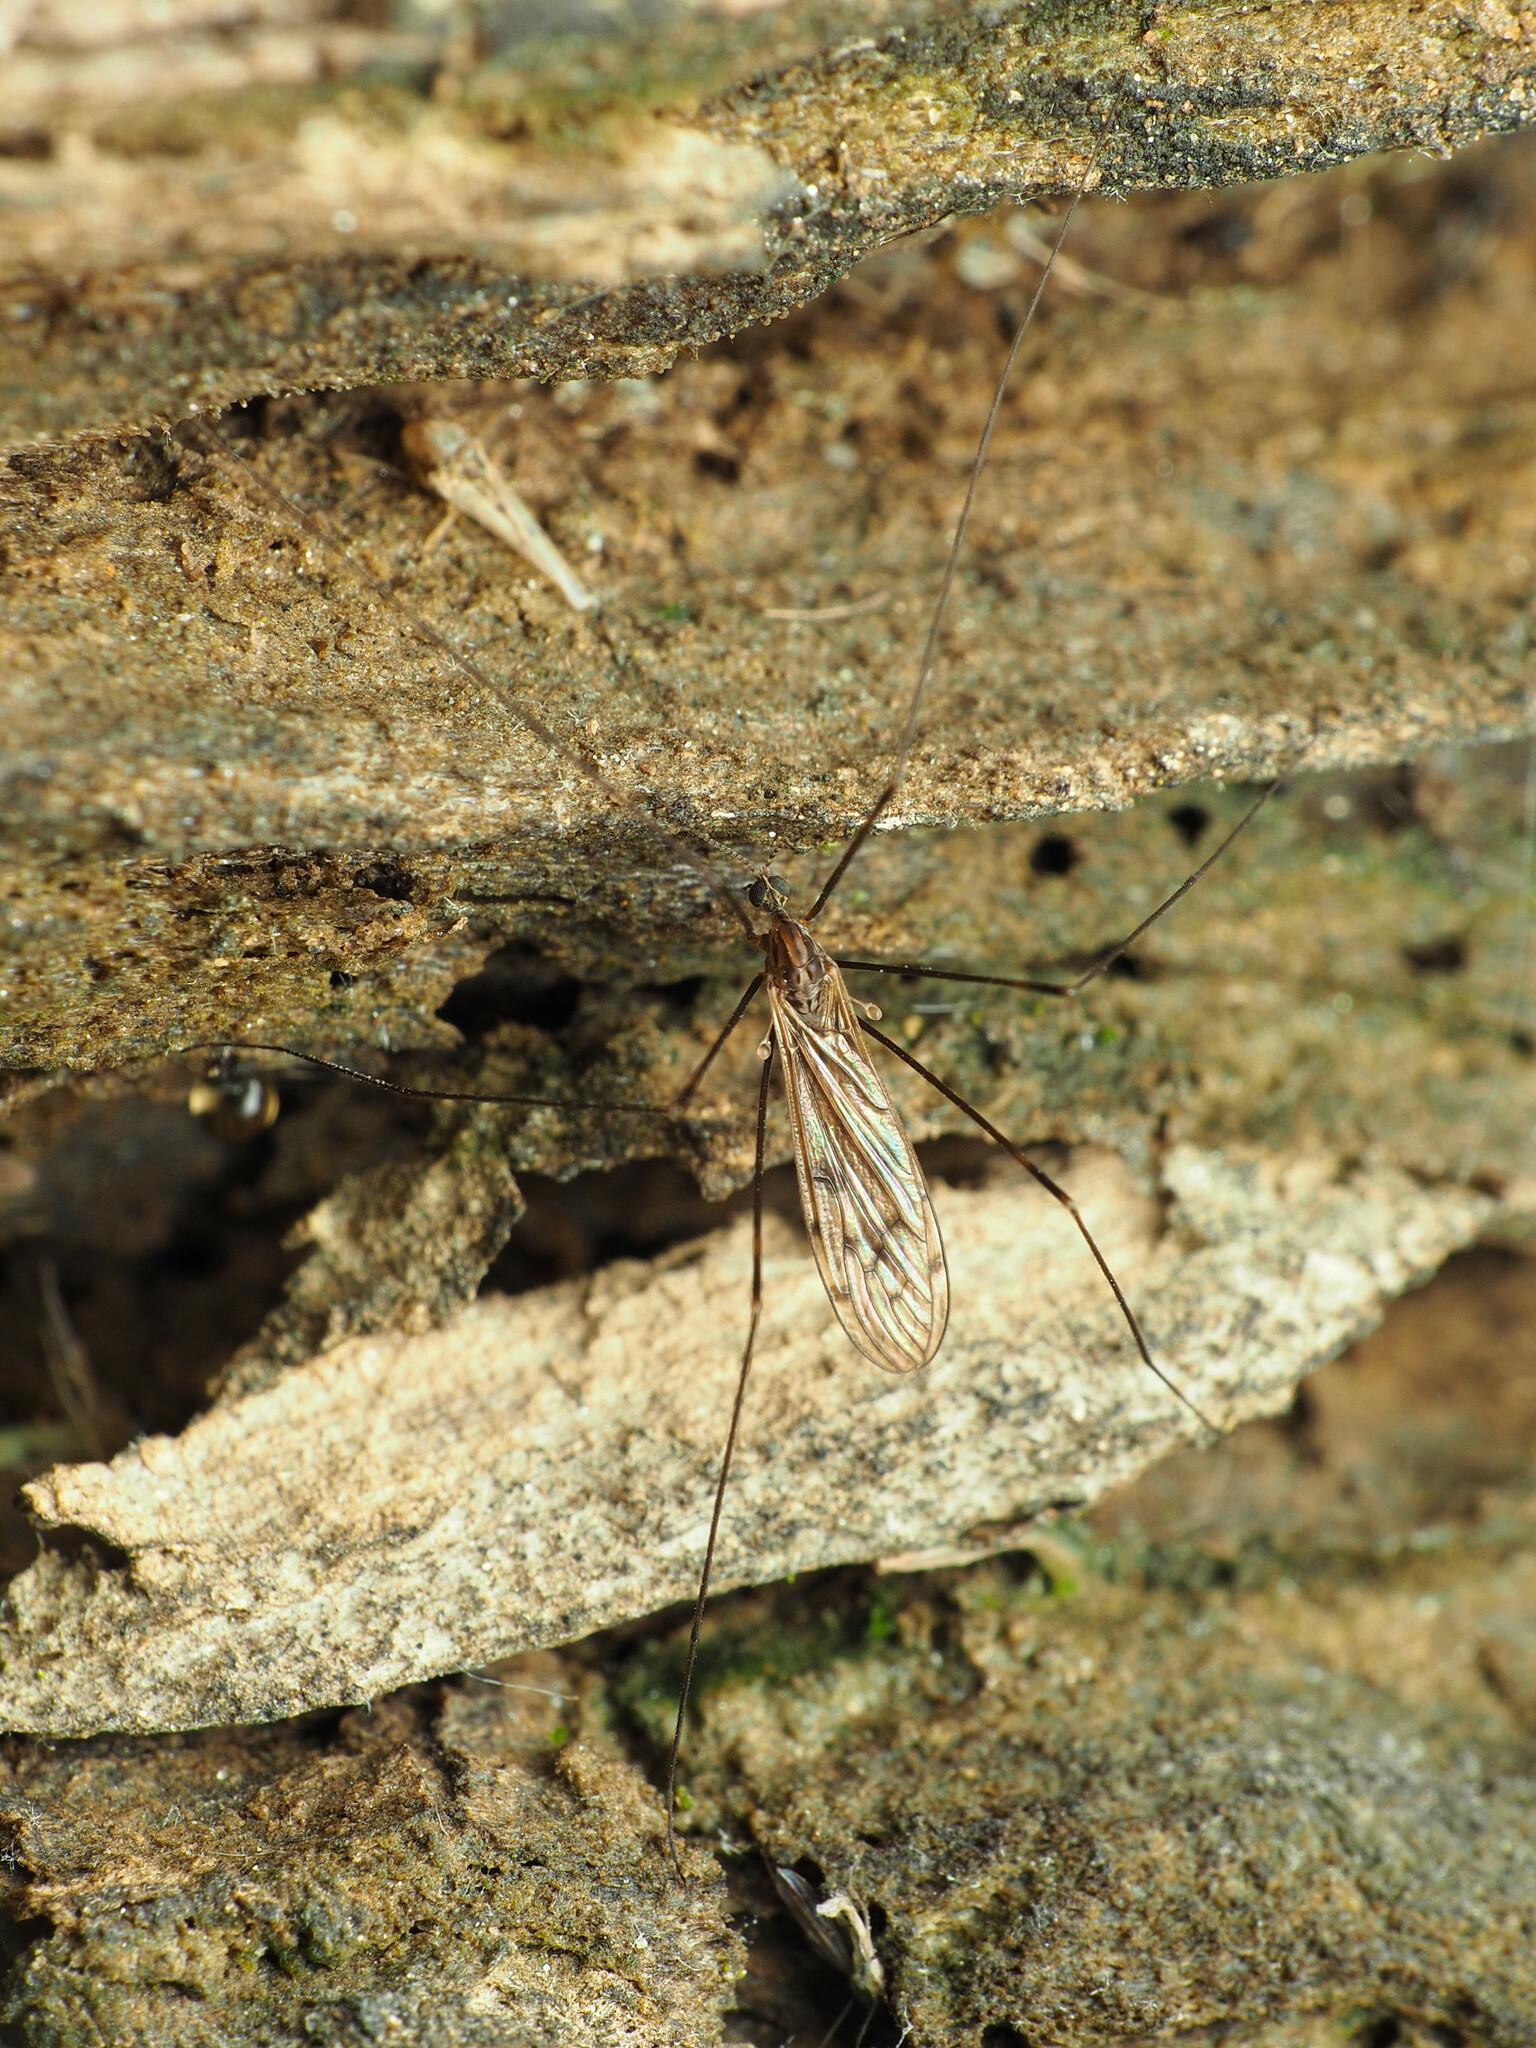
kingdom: Animalia
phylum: Arthropoda
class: Insecta
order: Diptera
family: Limoniidae
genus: Metalimnobia
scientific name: Metalimnobia novaeangliae
